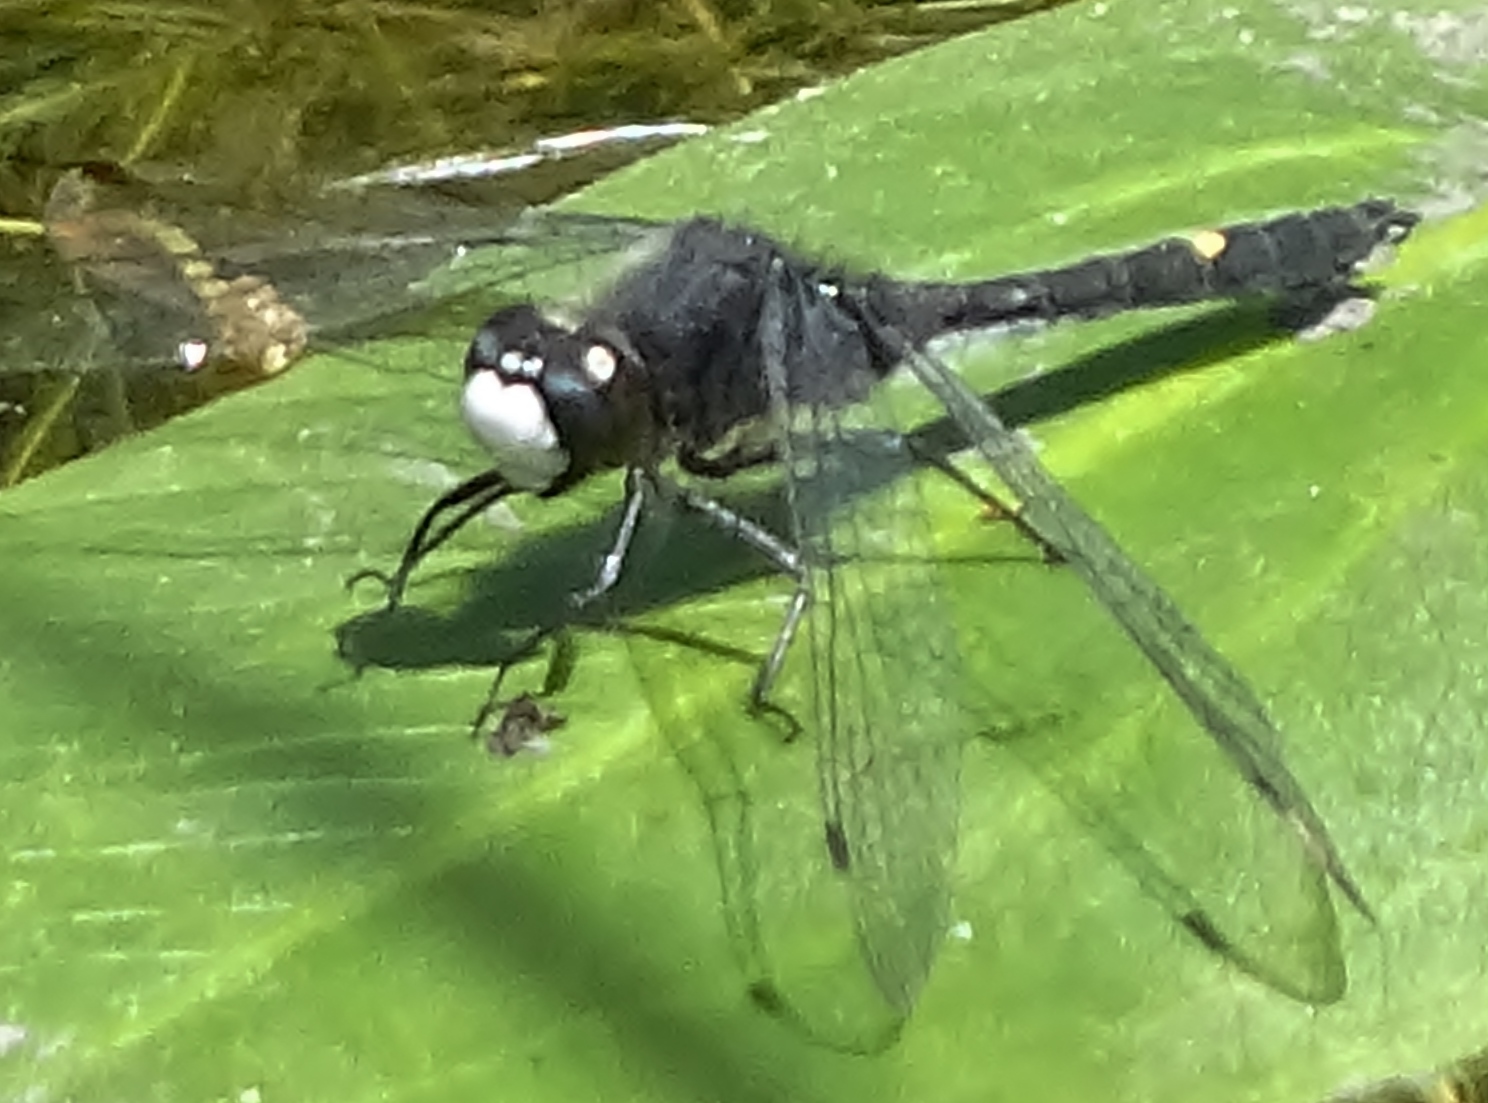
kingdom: Animalia
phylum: Arthropoda
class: Insecta
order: Odonata
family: Libellulidae
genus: Leucorrhinia
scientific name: Leucorrhinia intacta
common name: Dot-tailed whiteface
